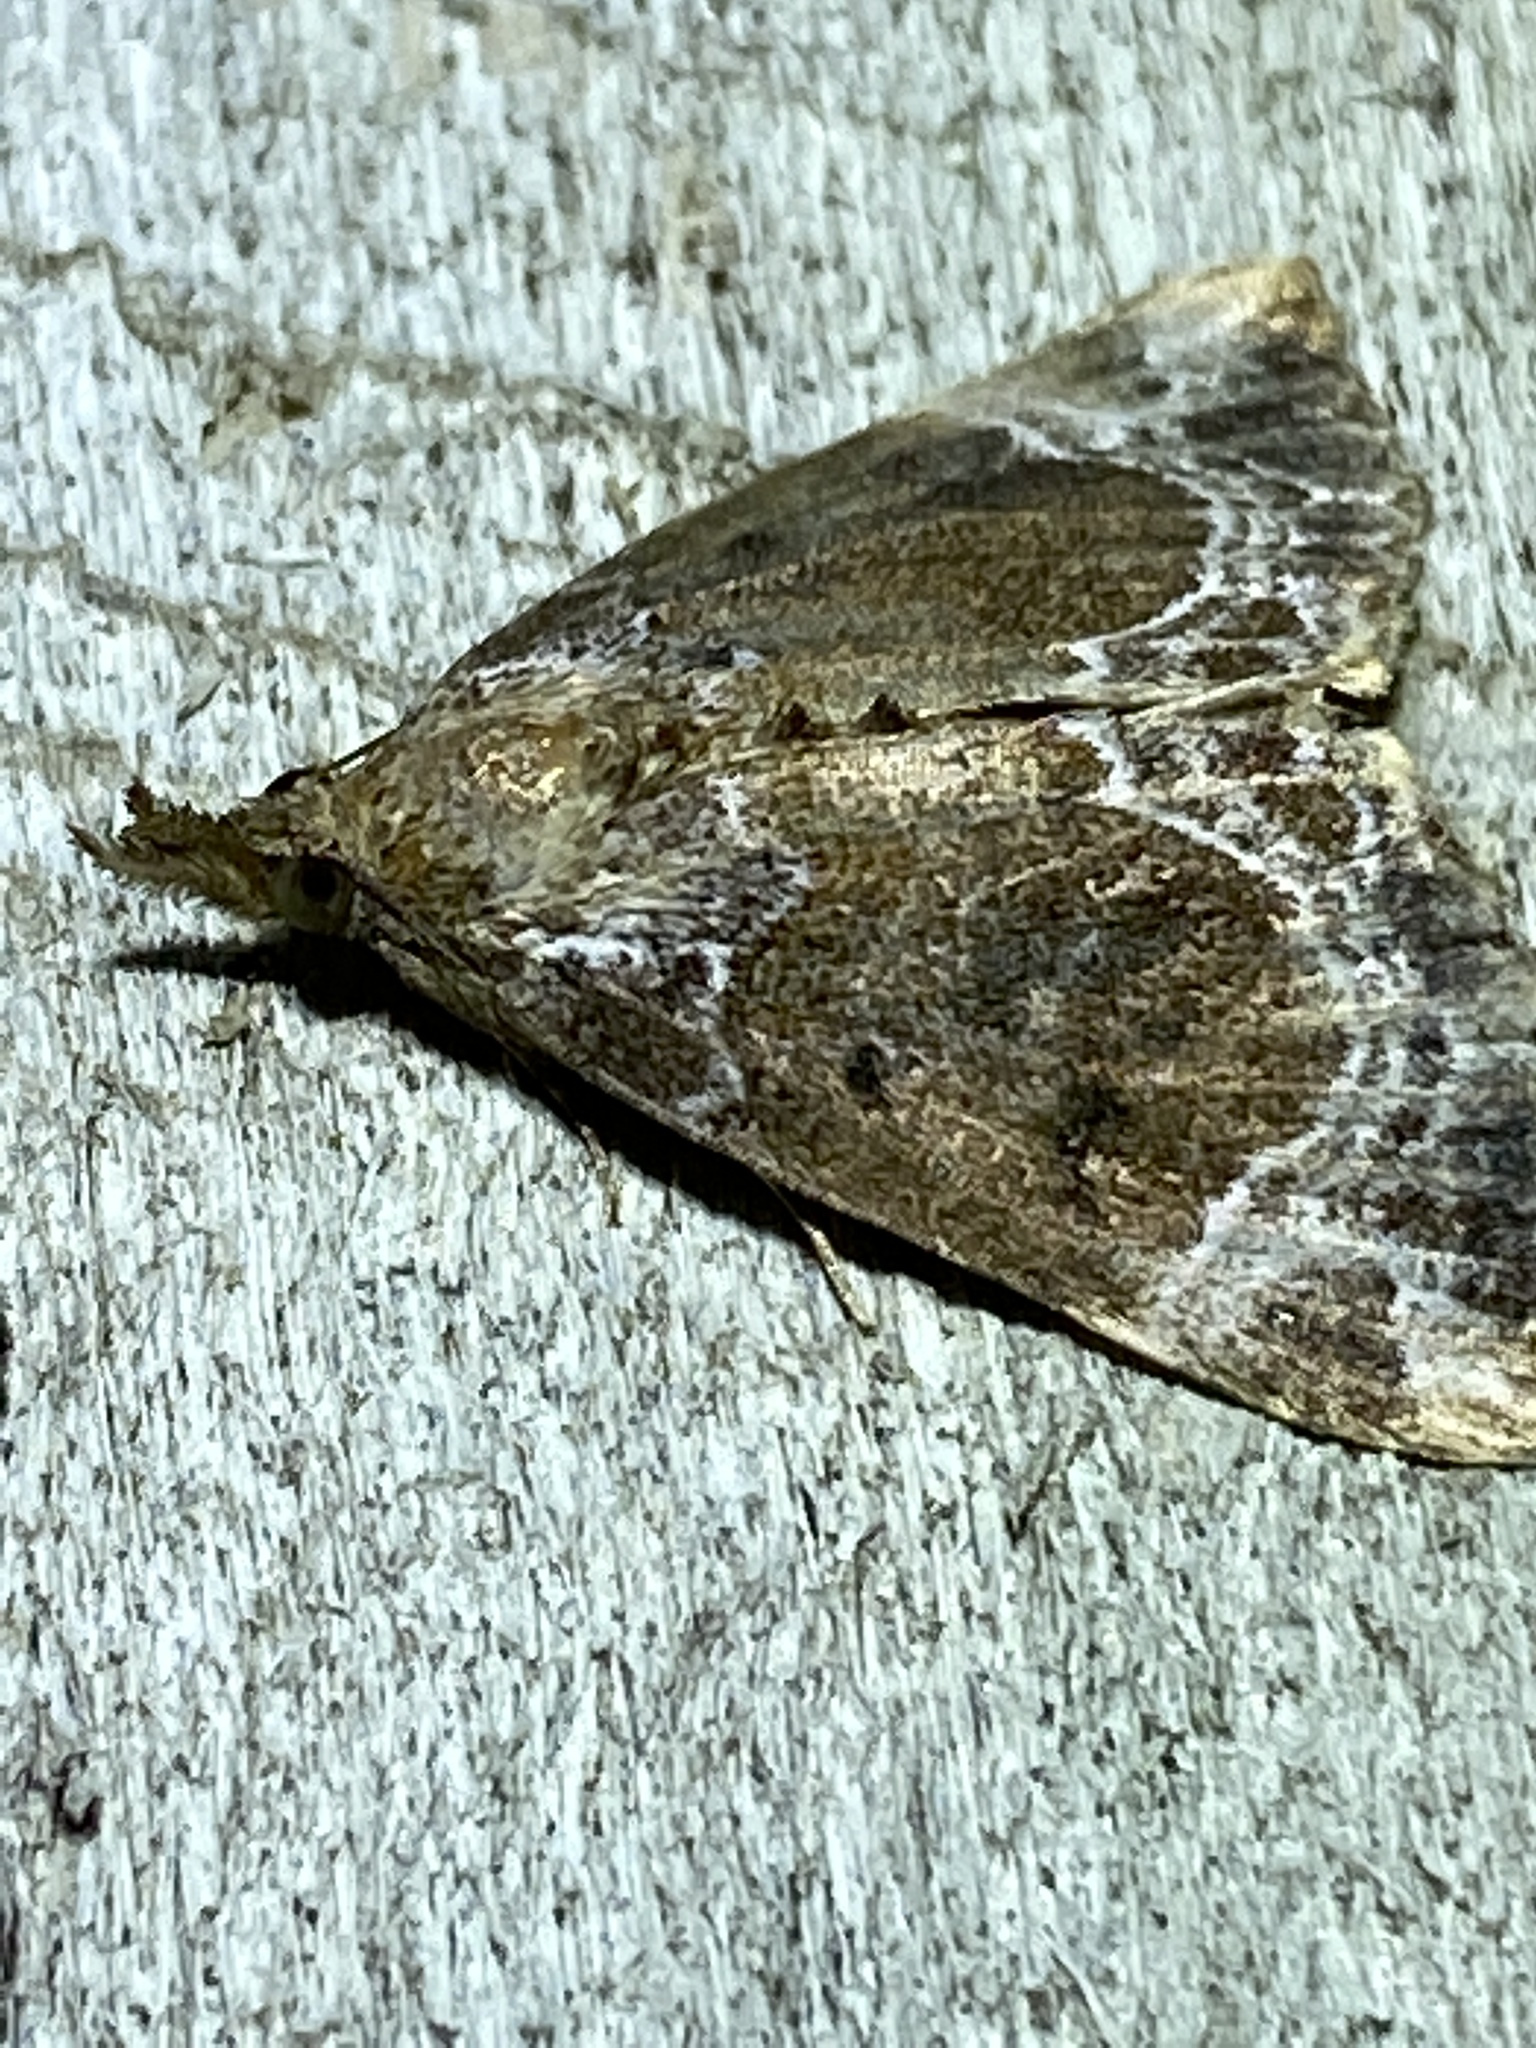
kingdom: Animalia
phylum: Arthropoda
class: Insecta
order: Lepidoptera
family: Erebidae
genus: Hypena
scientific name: Hypena abalienalis
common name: White-lined snout
